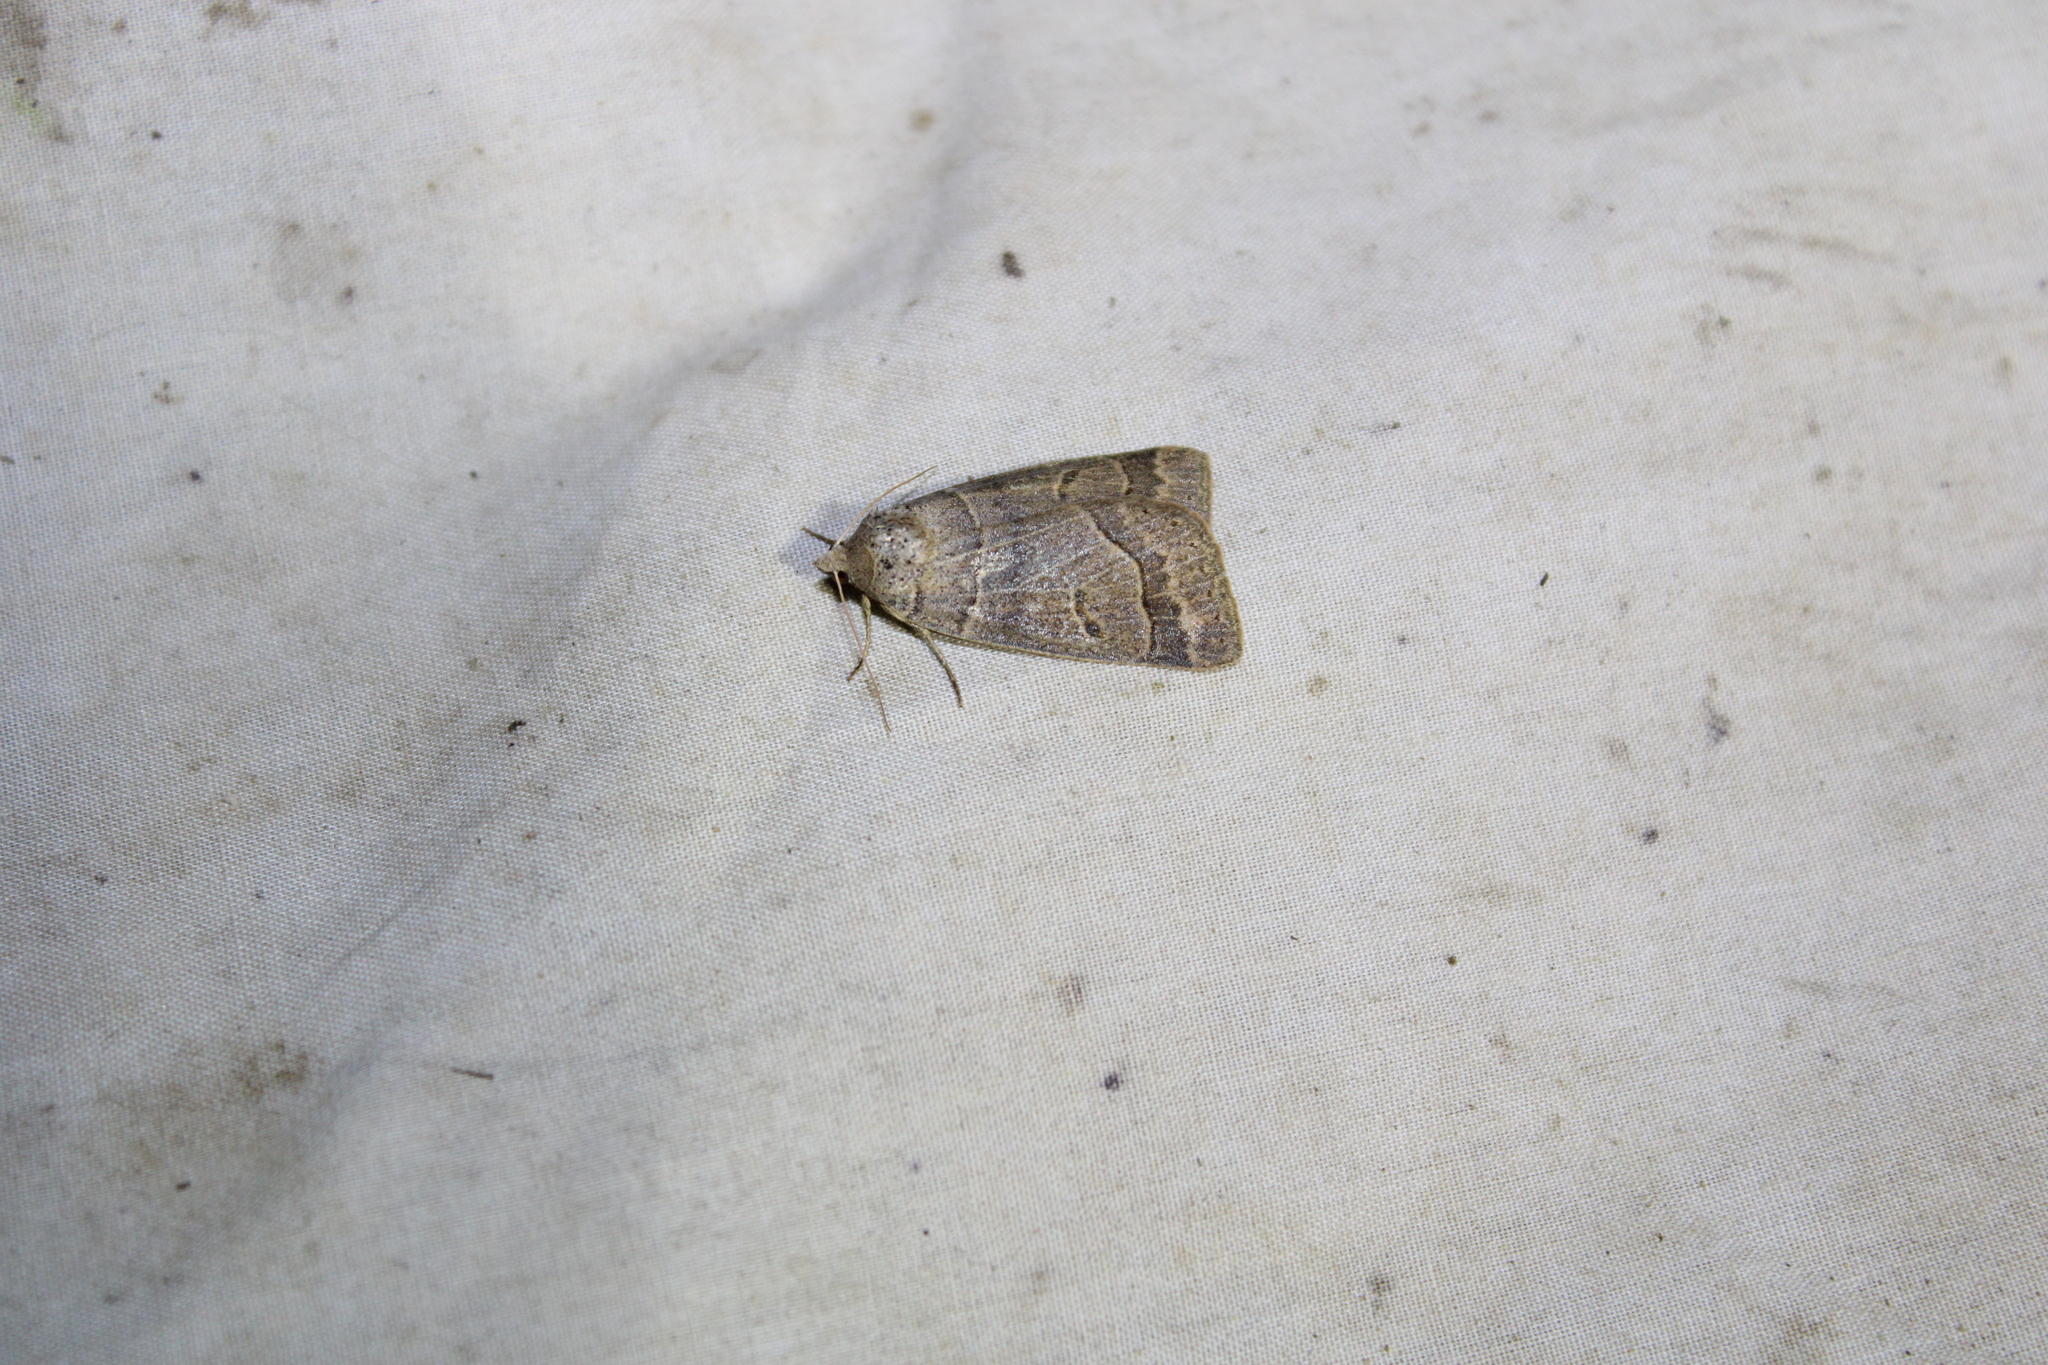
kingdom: Animalia
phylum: Arthropoda
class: Insecta
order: Lepidoptera
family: Erebidae
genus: Phoberia
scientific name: Phoberia atomaris
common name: Common oak moth
